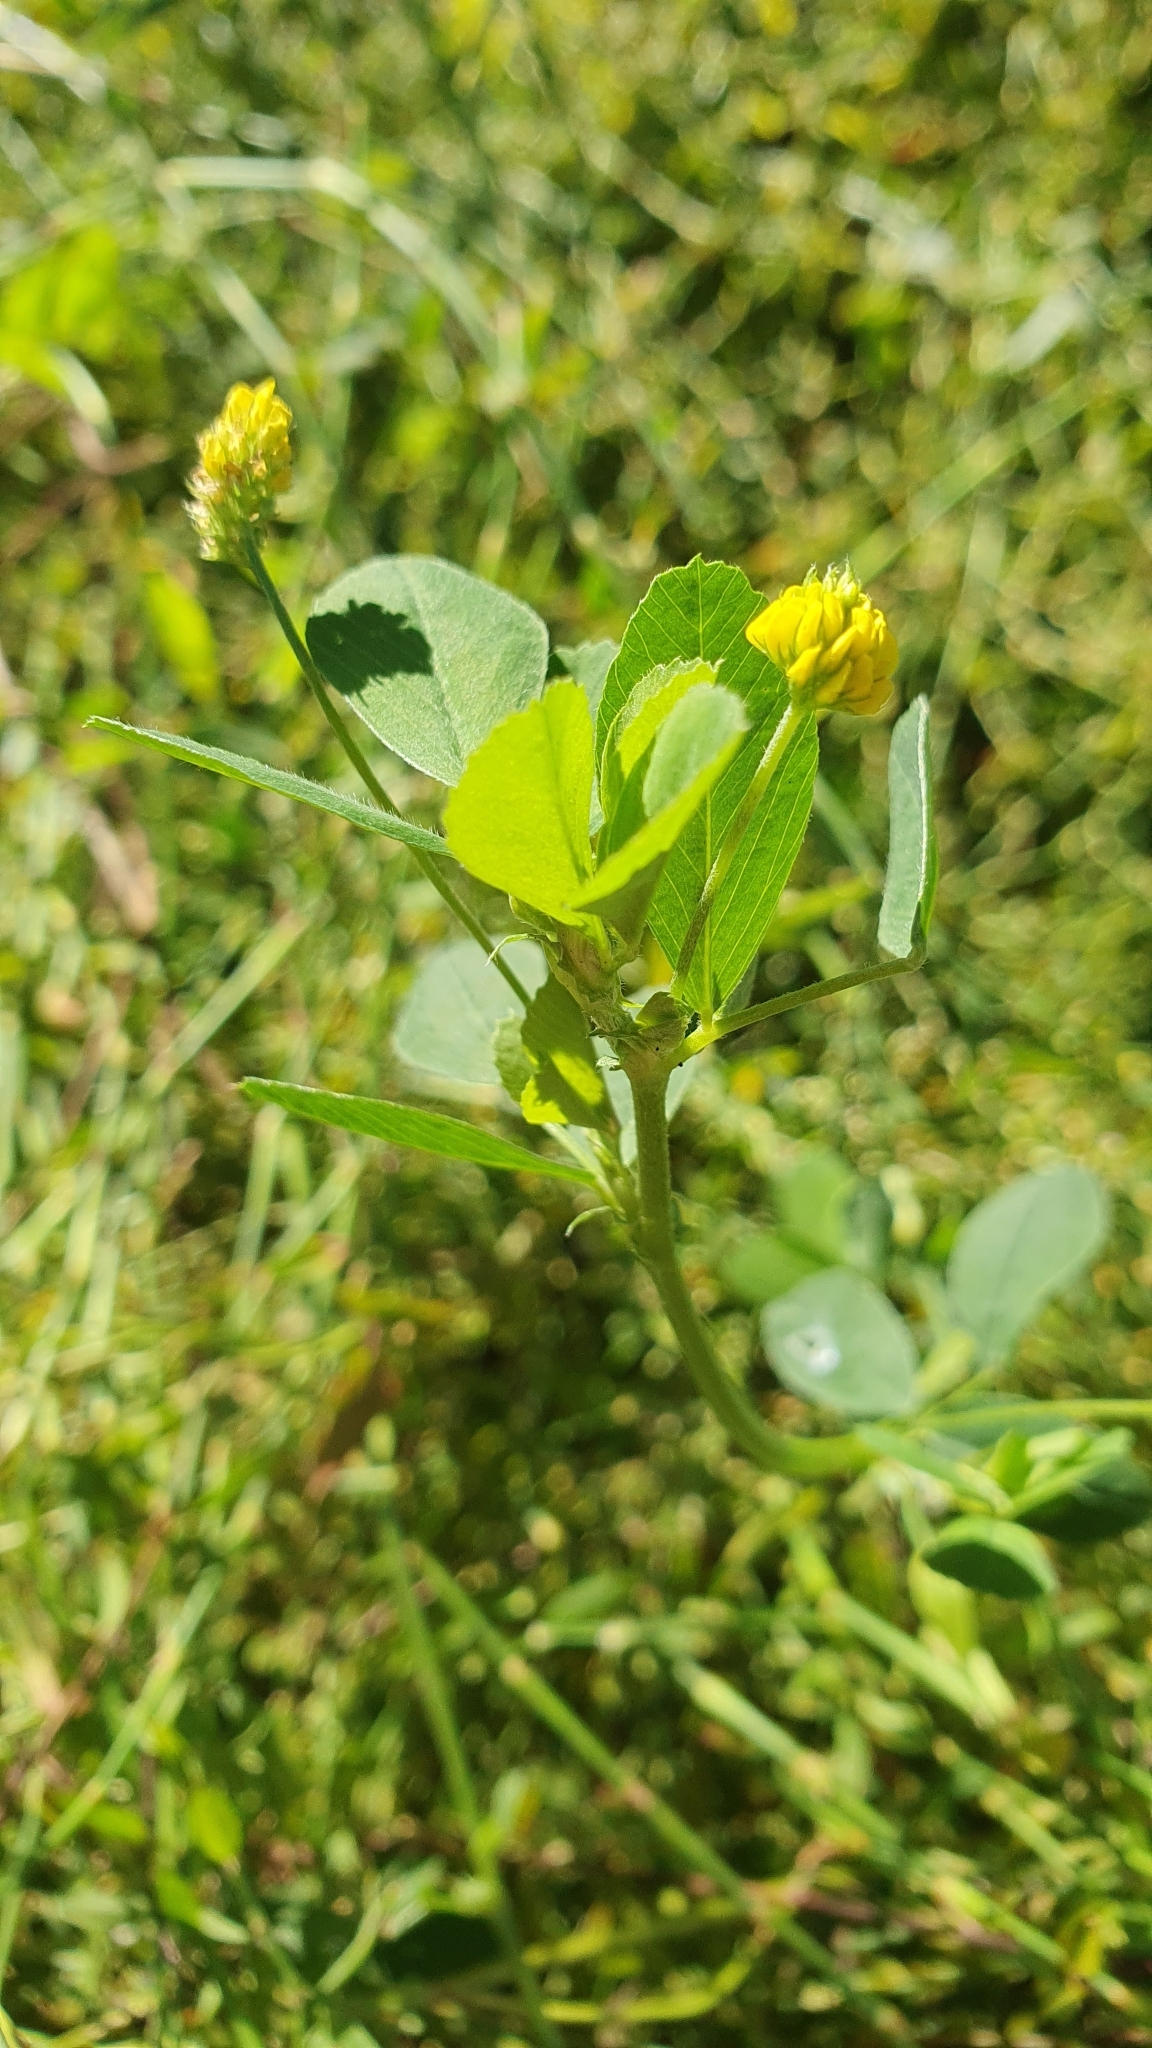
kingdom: Plantae
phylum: Tracheophyta
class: Magnoliopsida
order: Fabales
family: Fabaceae
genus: Medicago
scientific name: Medicago lupulina
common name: Black medick
